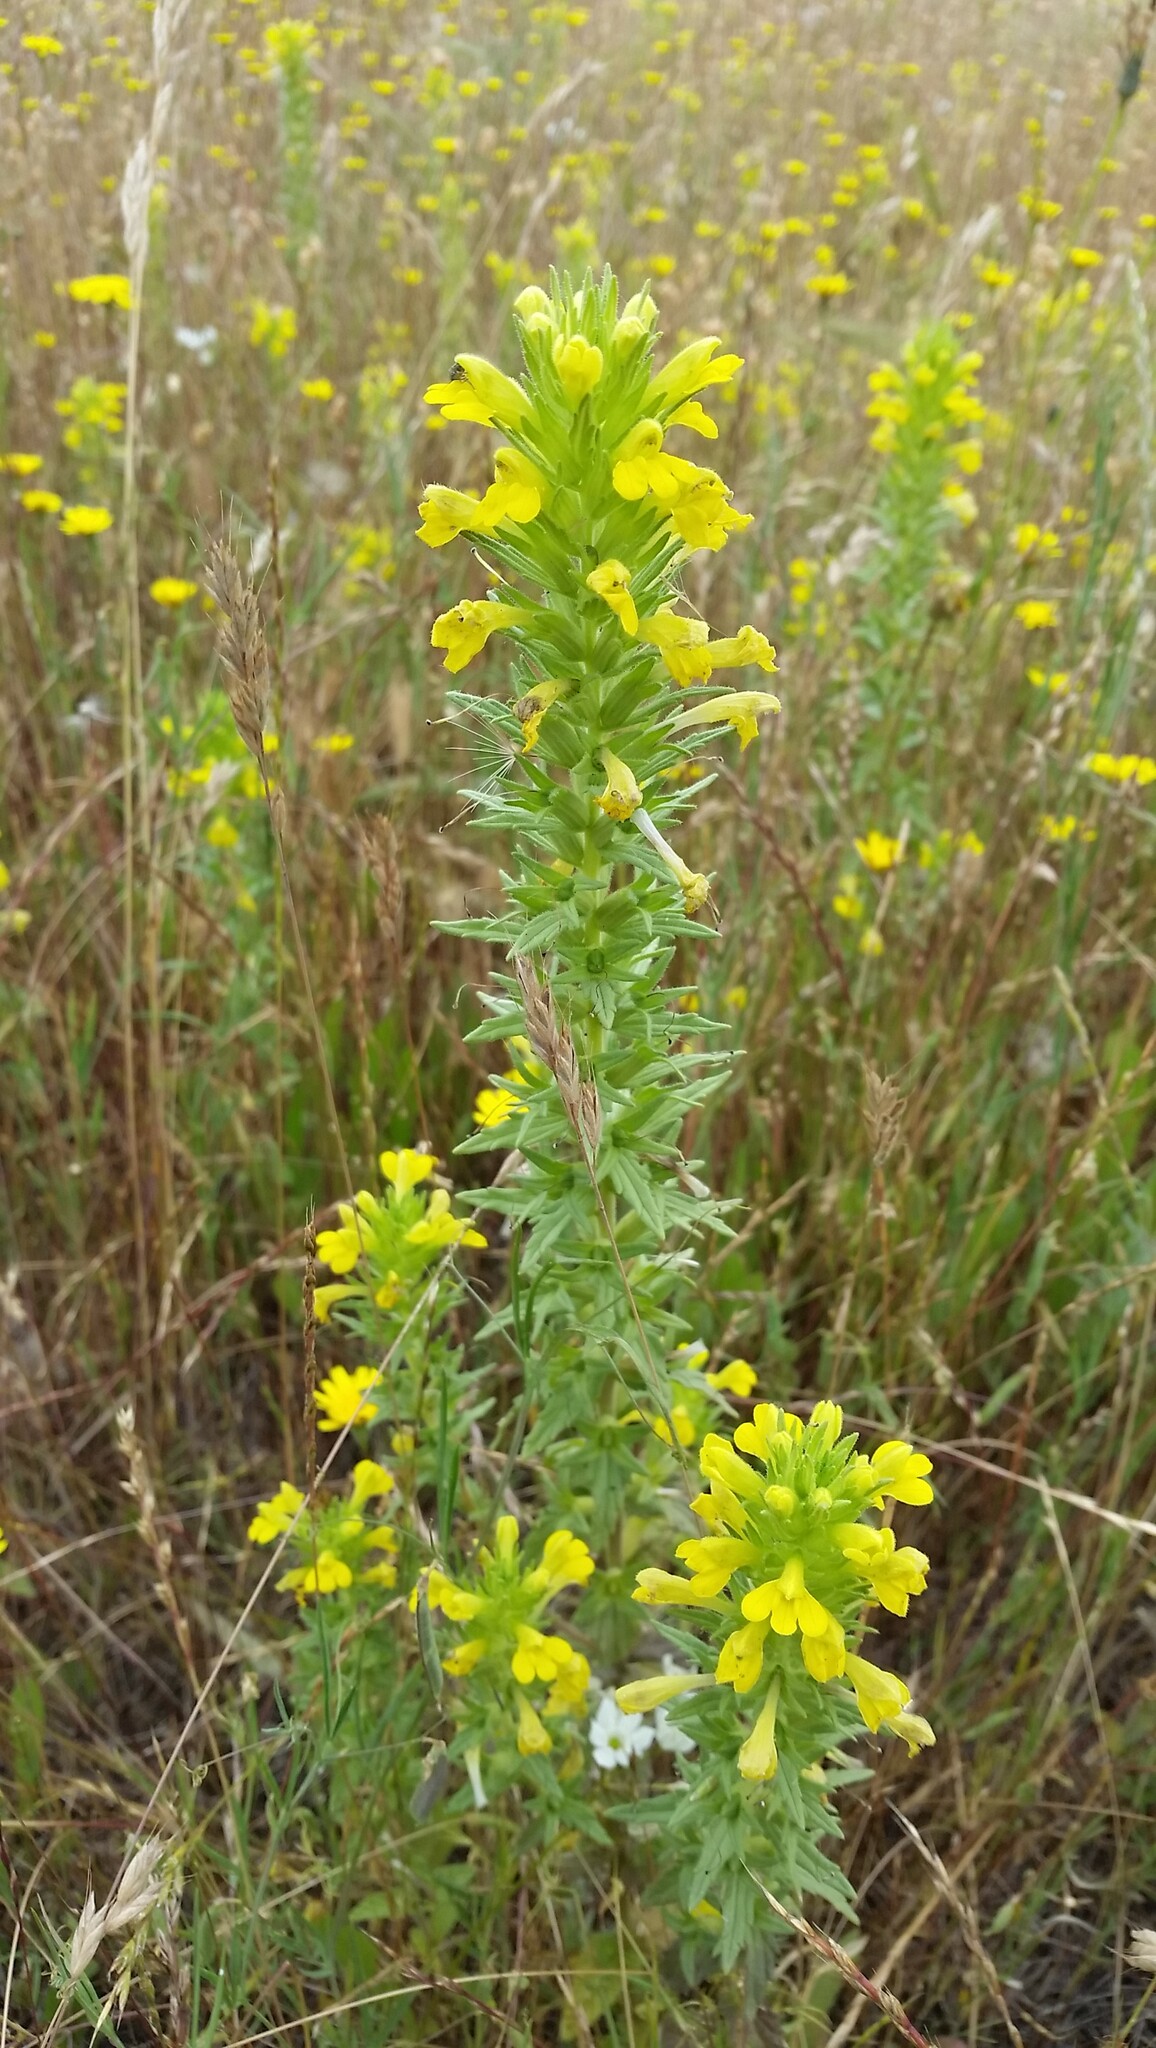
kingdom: Plantae
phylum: Tracheophyta
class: Magnoliopsida
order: Lamiales
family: Orobanchaceae
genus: Bellardia
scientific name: Bellardia viscosa
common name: Sticky parentucellia
